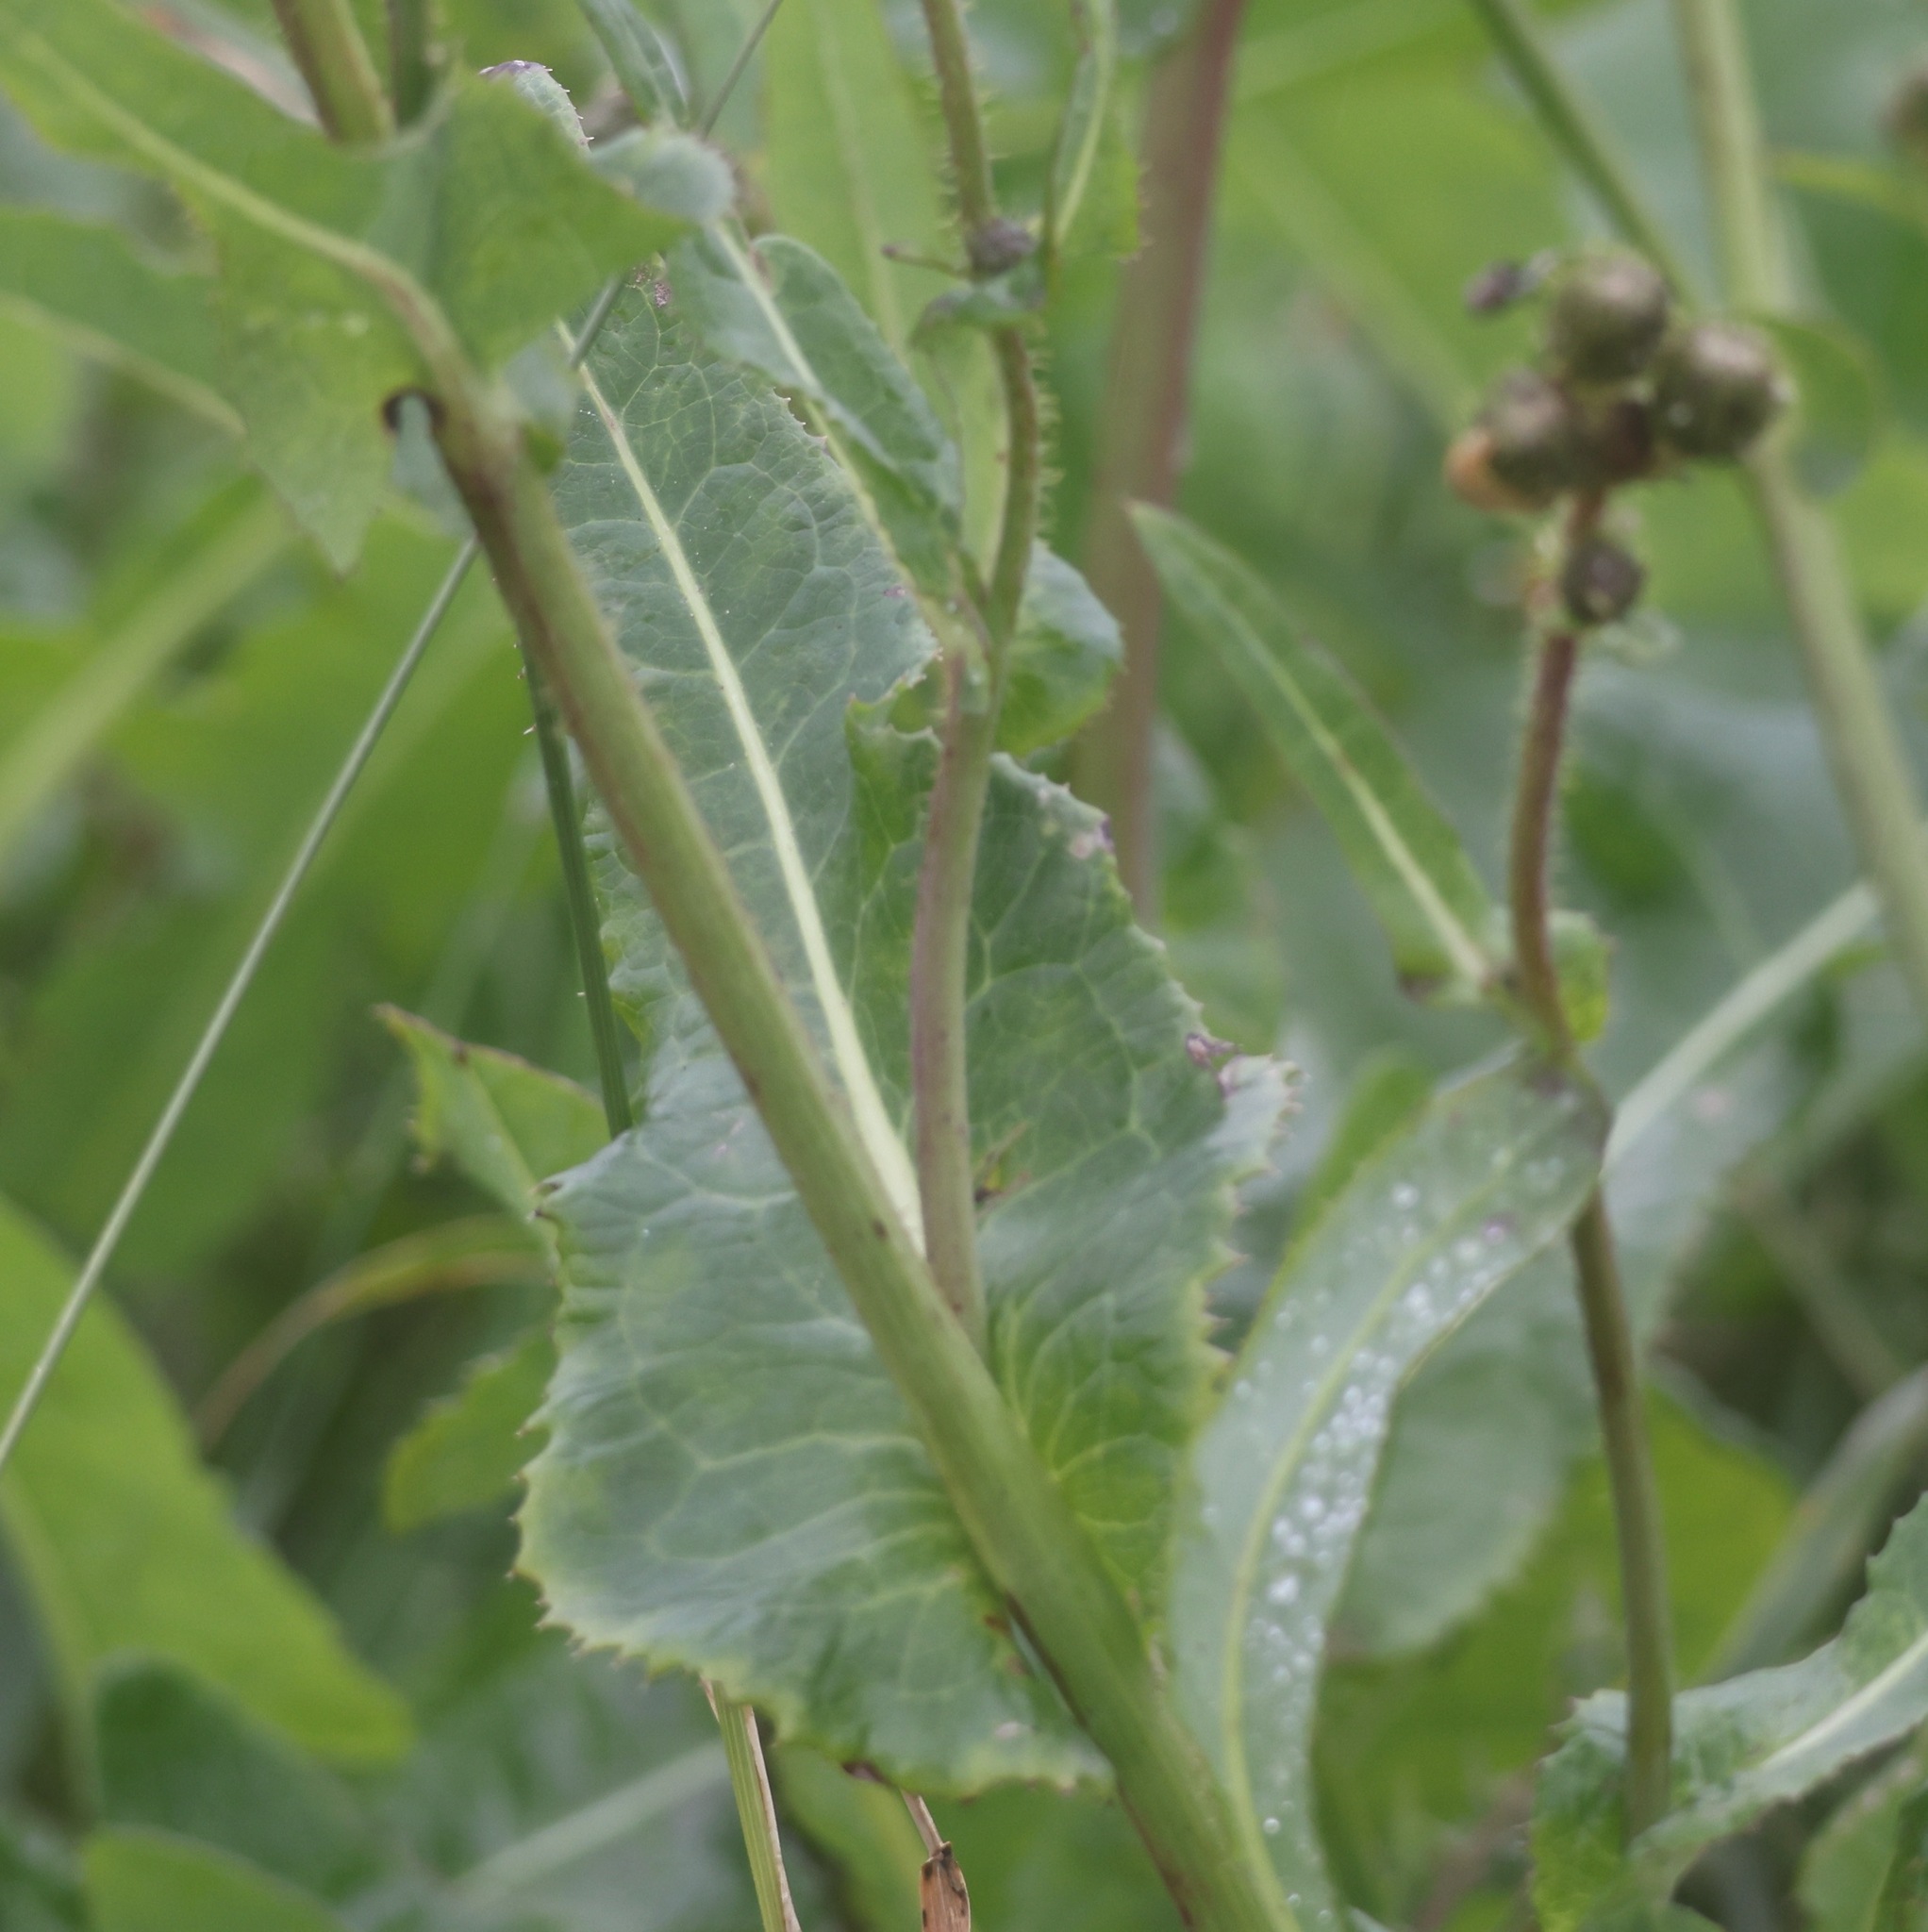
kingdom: Plantae
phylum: Tracheophyta
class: Magnoliopsida
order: Asterales
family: Asteraceae
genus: Sonchus
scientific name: Sonchus arvensis
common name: Perennial sow-thistle
